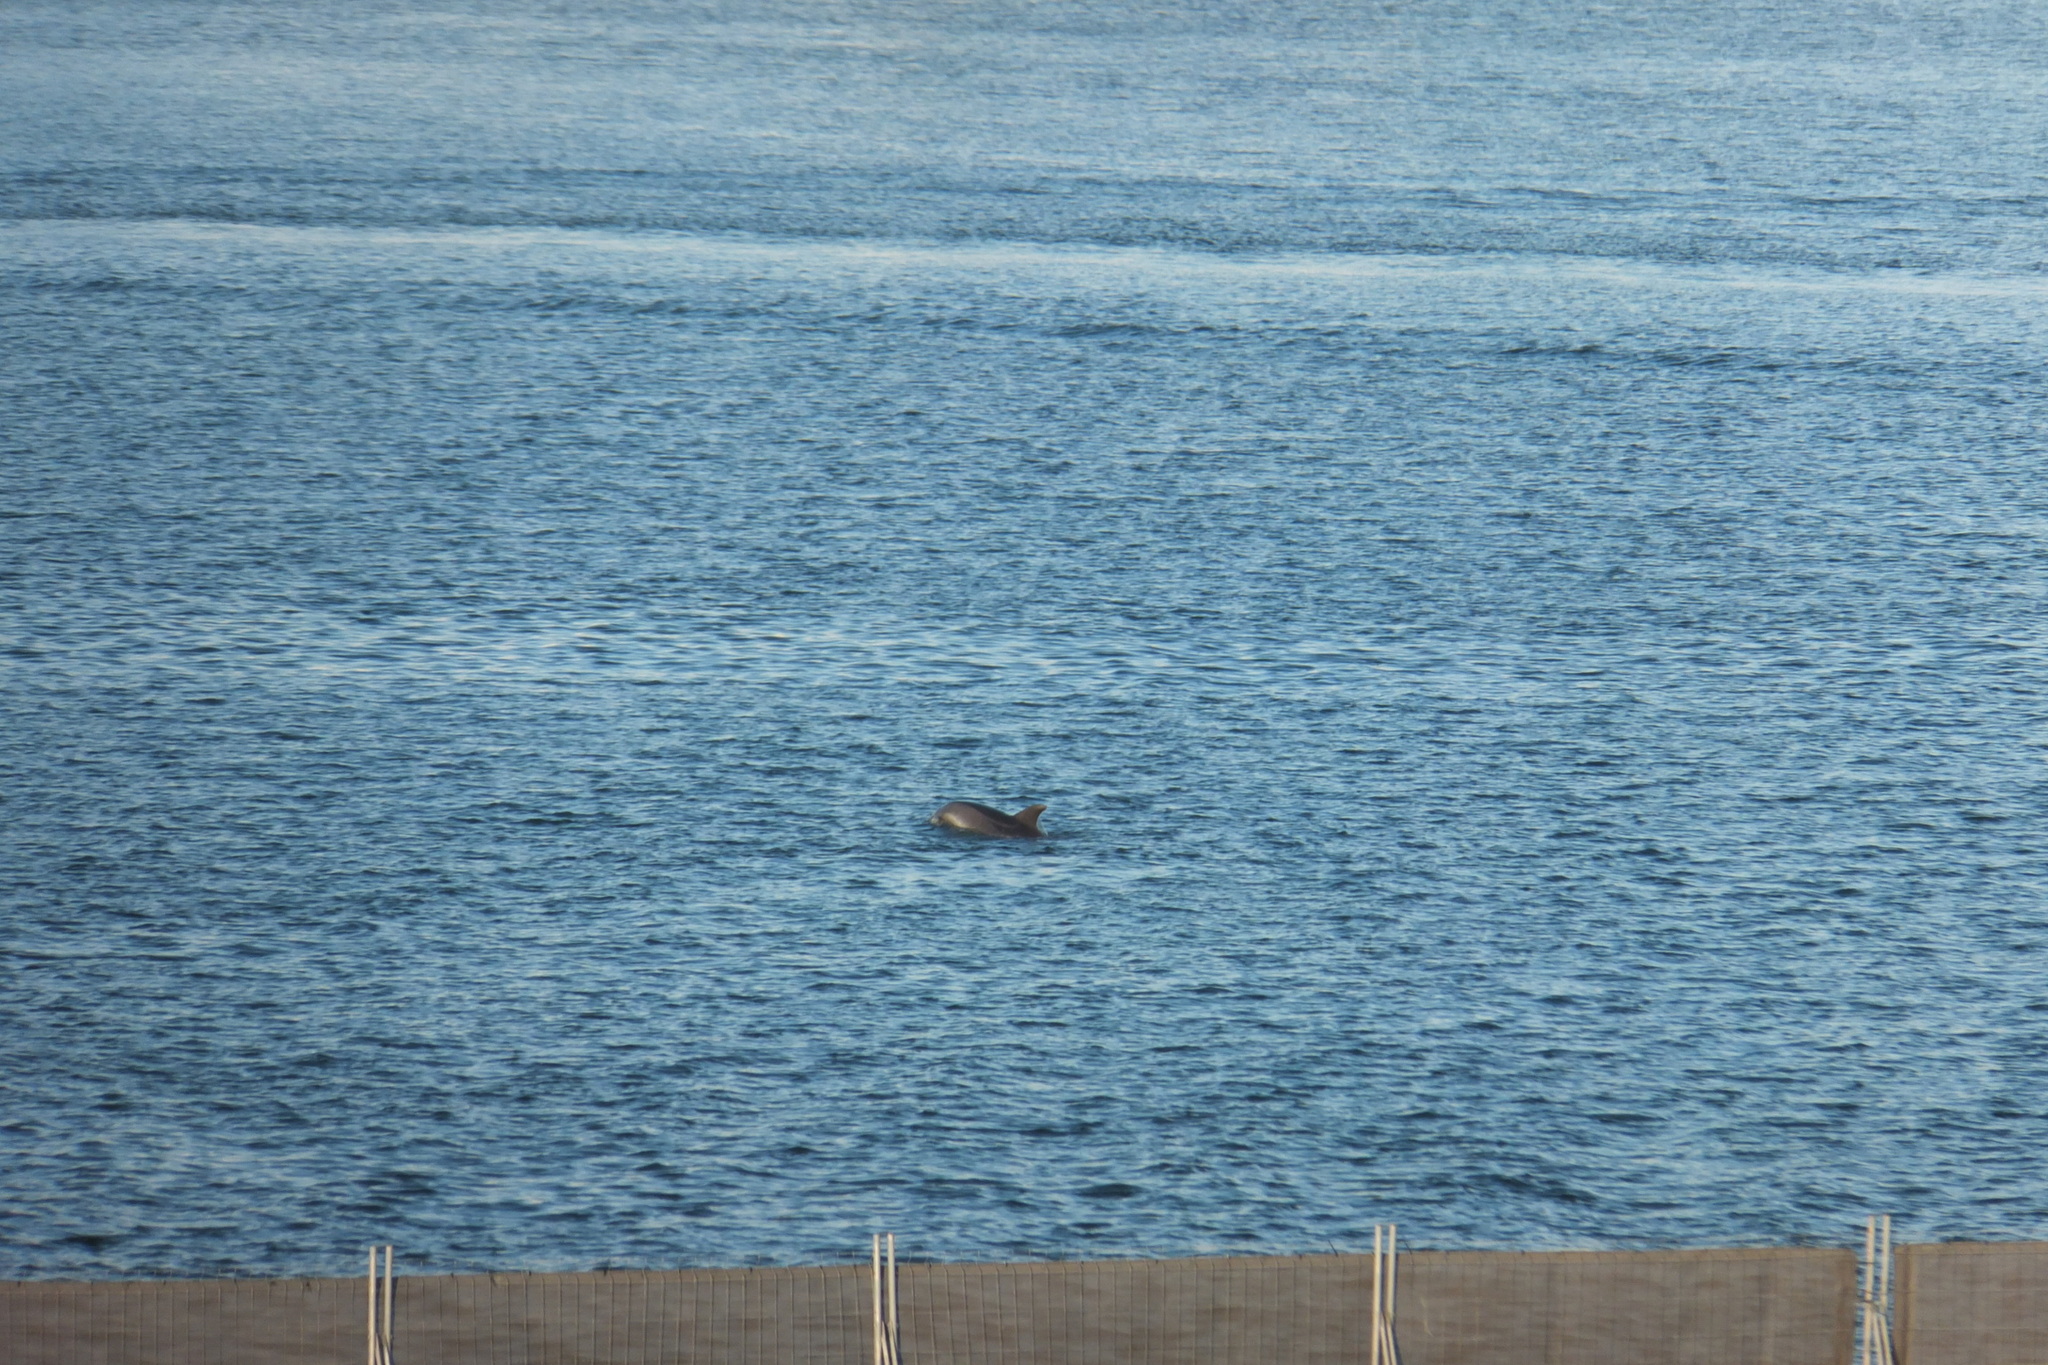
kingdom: Animalia
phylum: Chordata
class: Mammalia
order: Cetacea
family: Delphinidae
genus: Tursiops
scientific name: Tursiops truncatus
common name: Bottlenose dolphin
